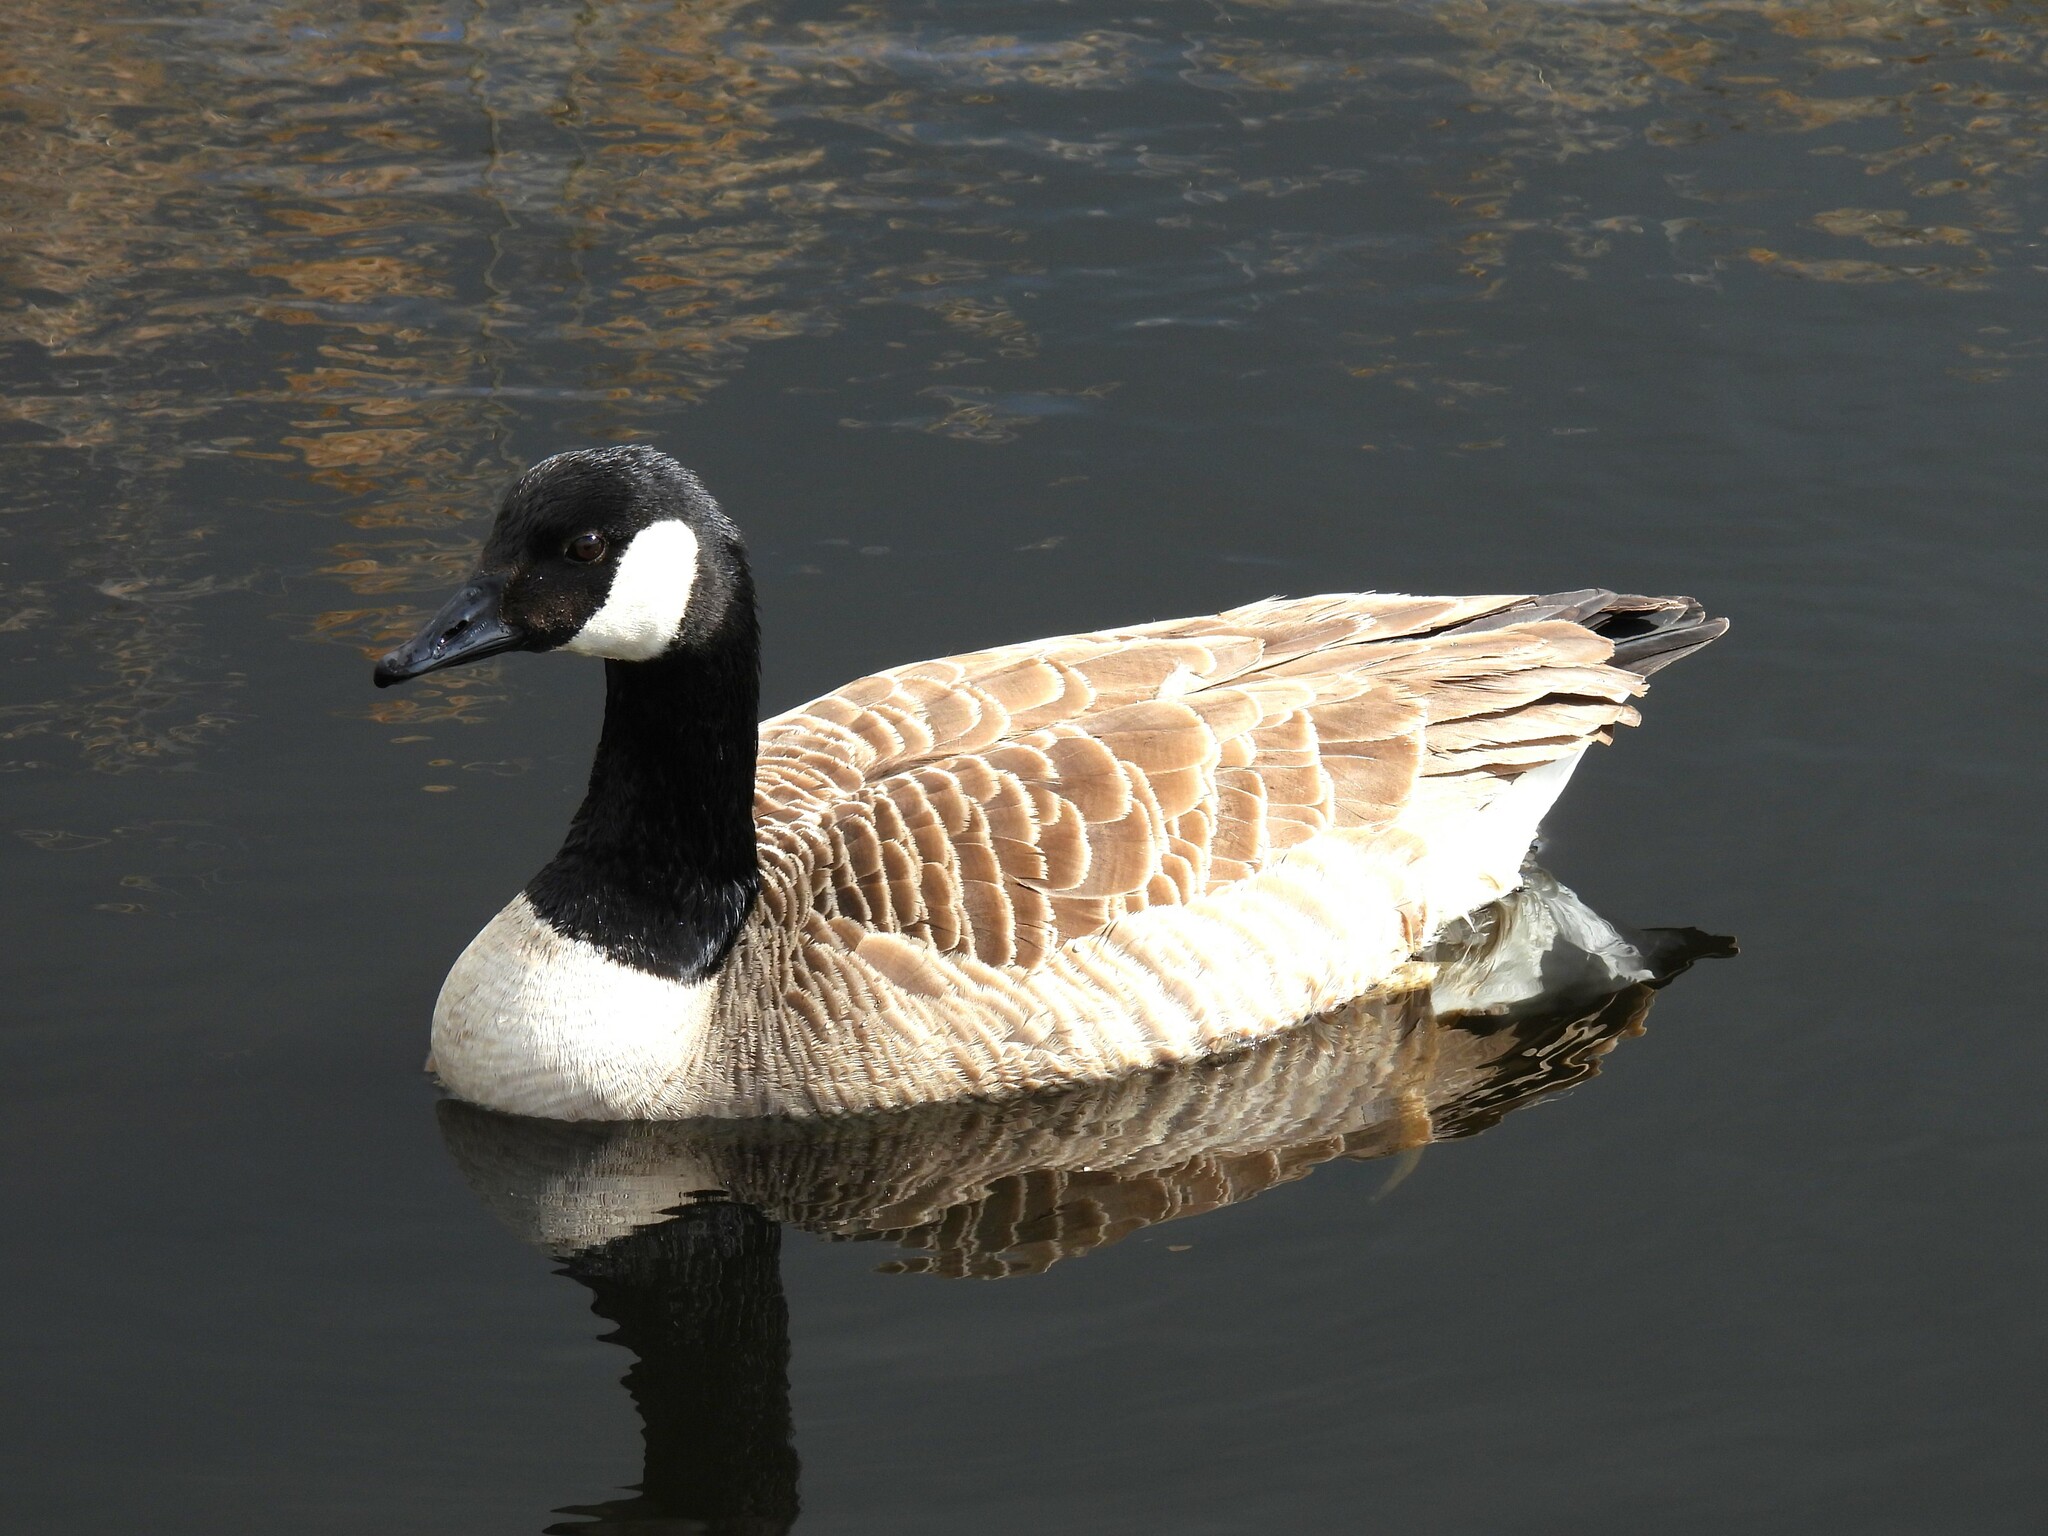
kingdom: Animalia
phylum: Chordata
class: Aves
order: Anseriformes
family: Anatidae
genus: Branta
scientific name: Branta canadensis
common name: Canada goose
